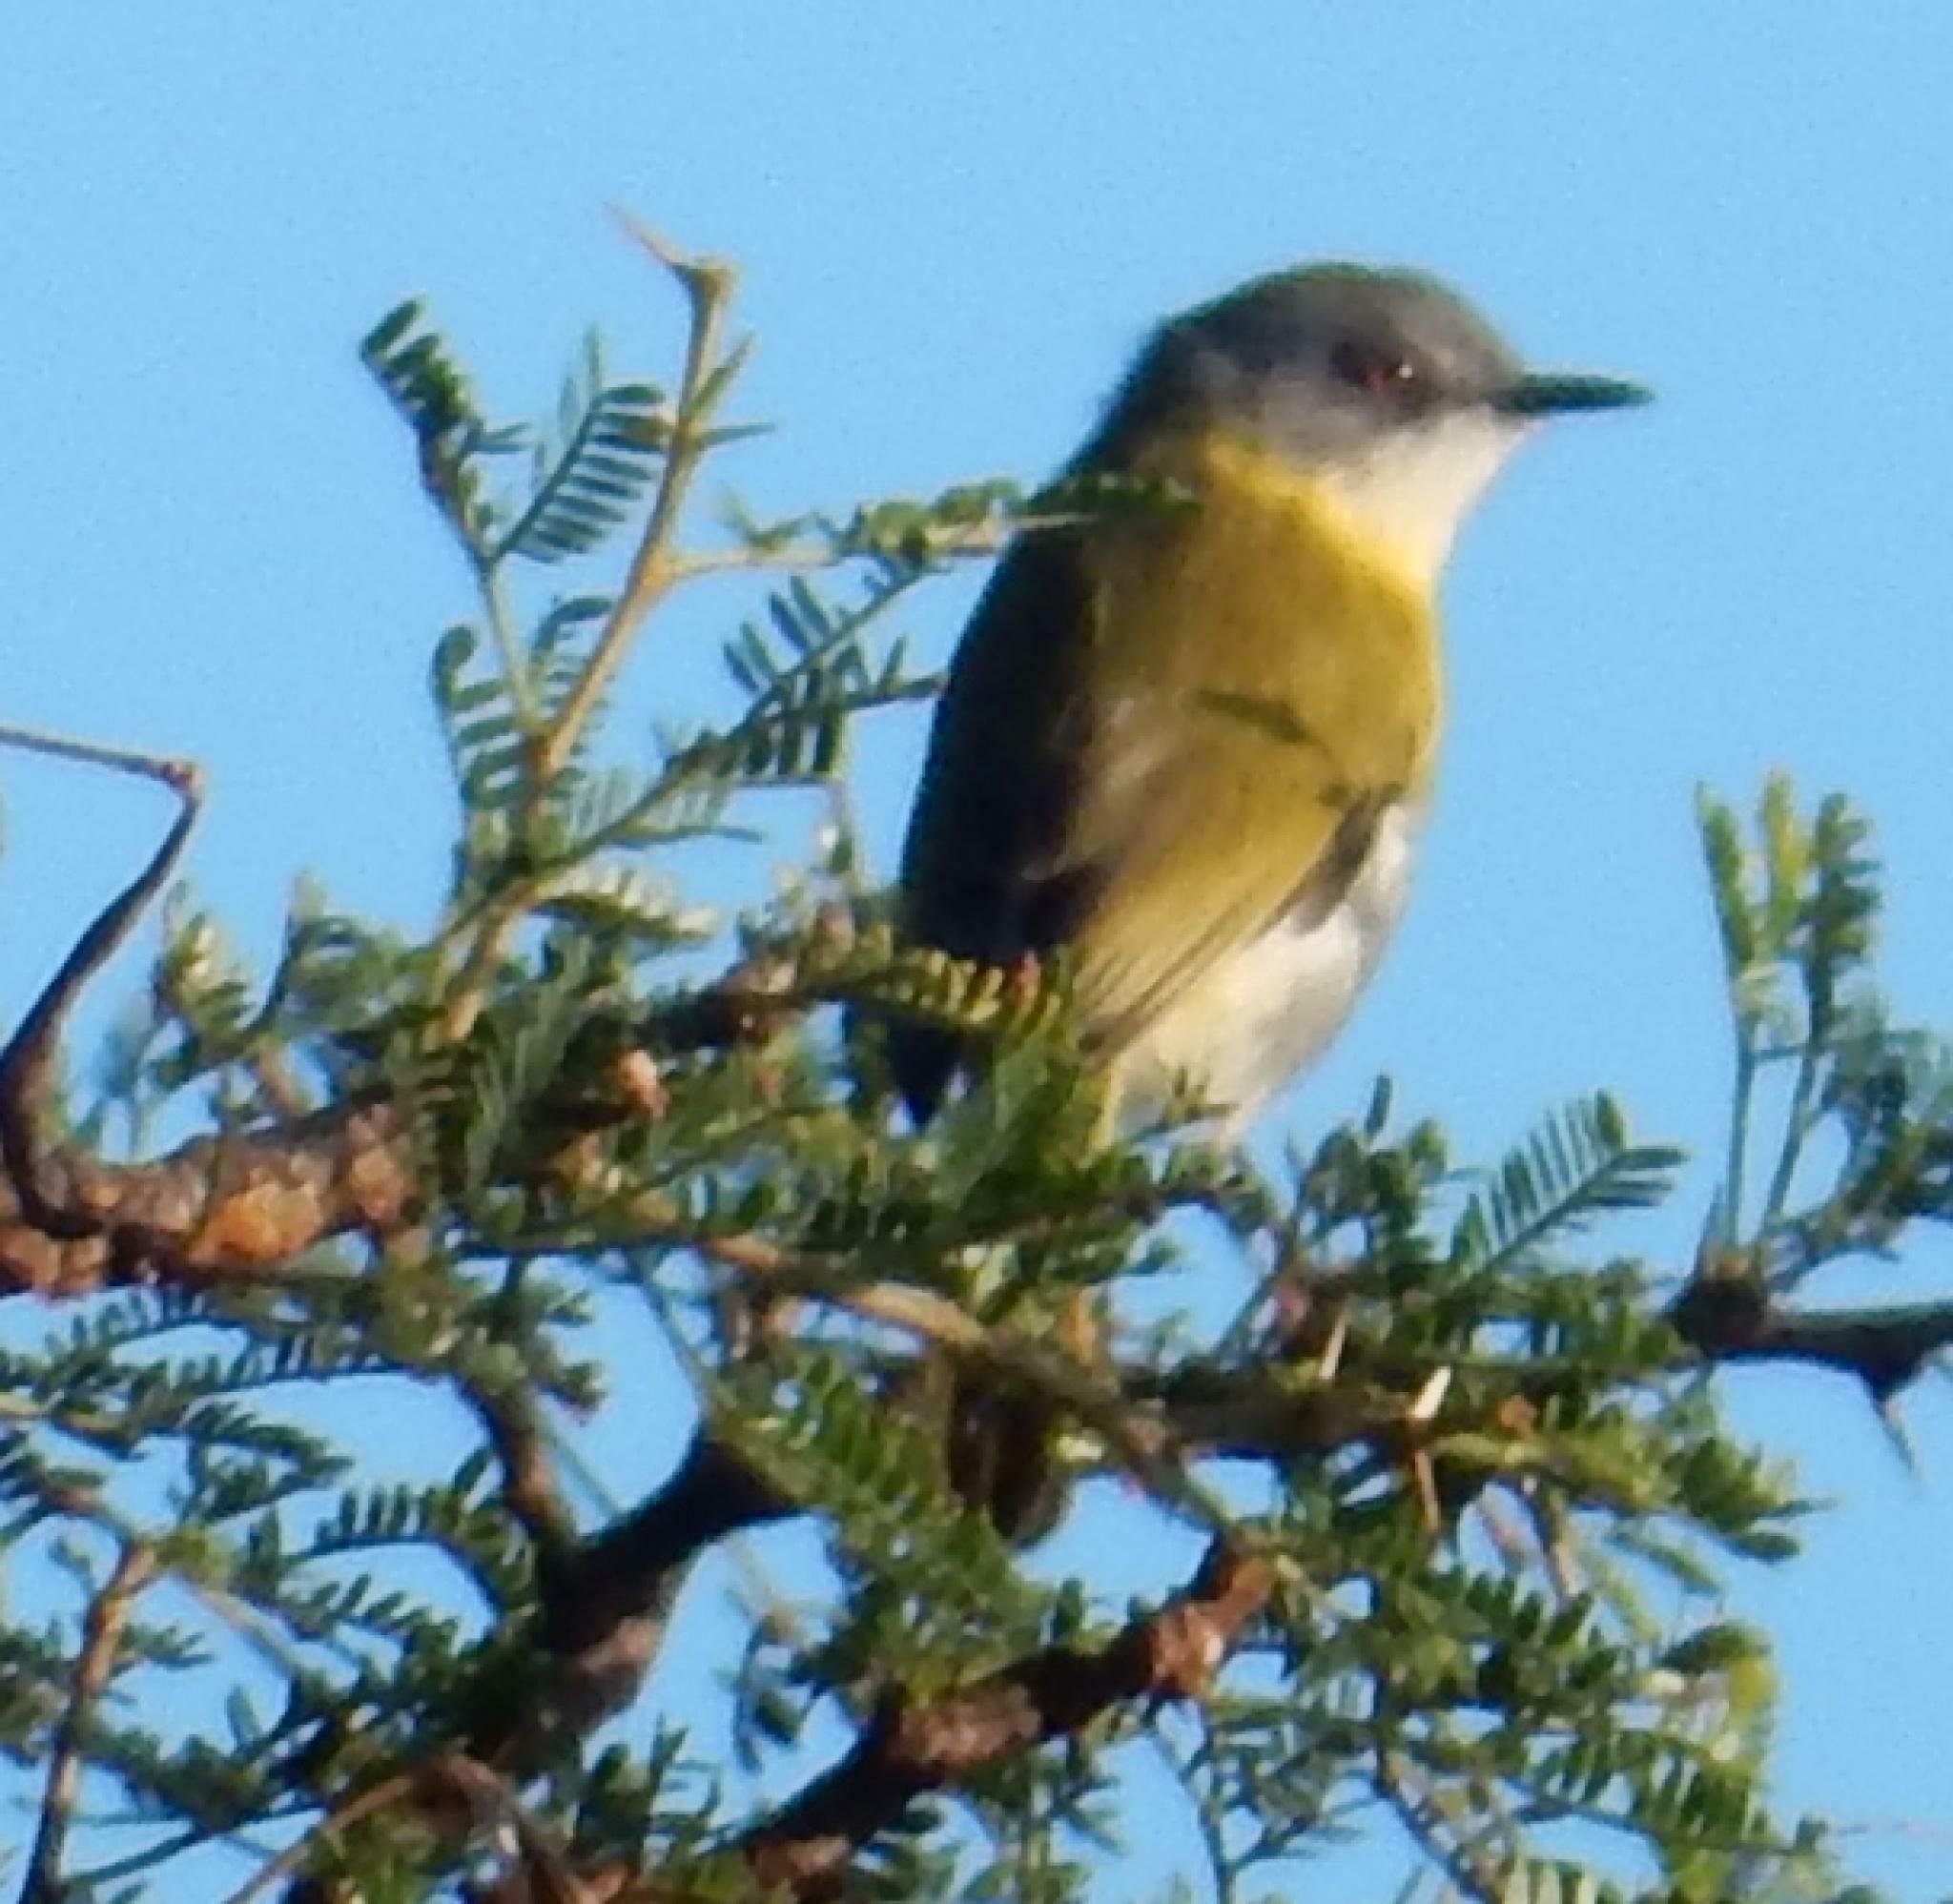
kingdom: Animalia
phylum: Chordata
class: Aves
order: Passeriformes
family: Cisticolidae
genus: Apalis
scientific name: Apalis flavida
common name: Yellow-breasted apalis
